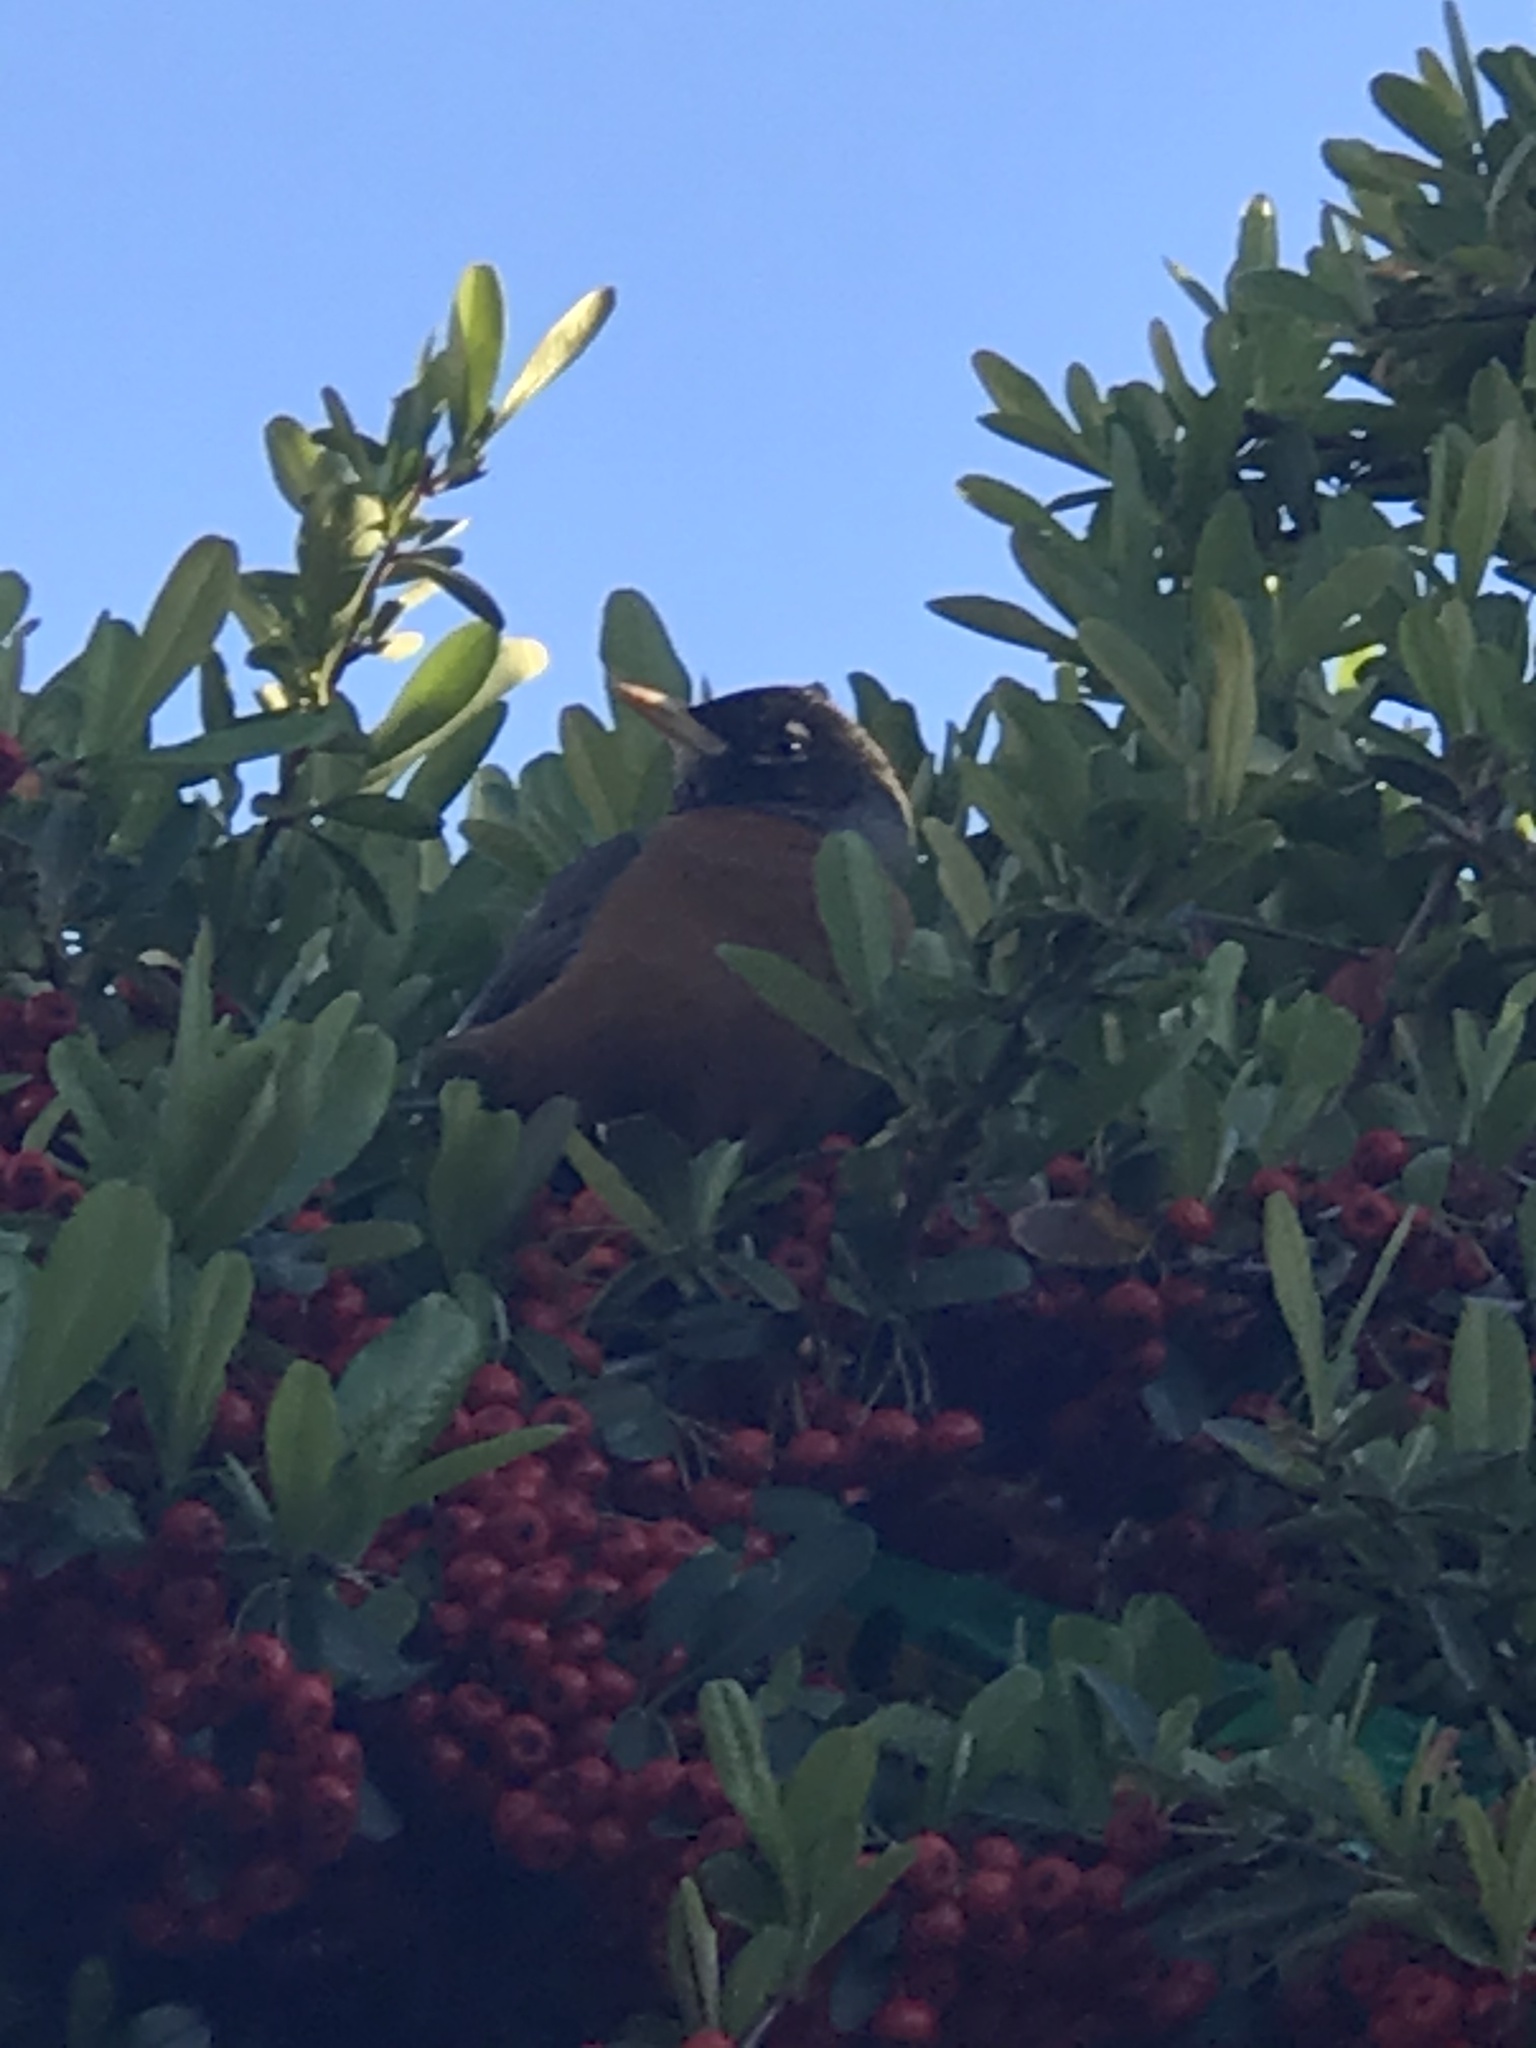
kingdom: Animalia
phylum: Chordata
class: Aves
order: Passeriformes
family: Turdidae
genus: Turdus
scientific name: Turdus migratorius
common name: American robin
